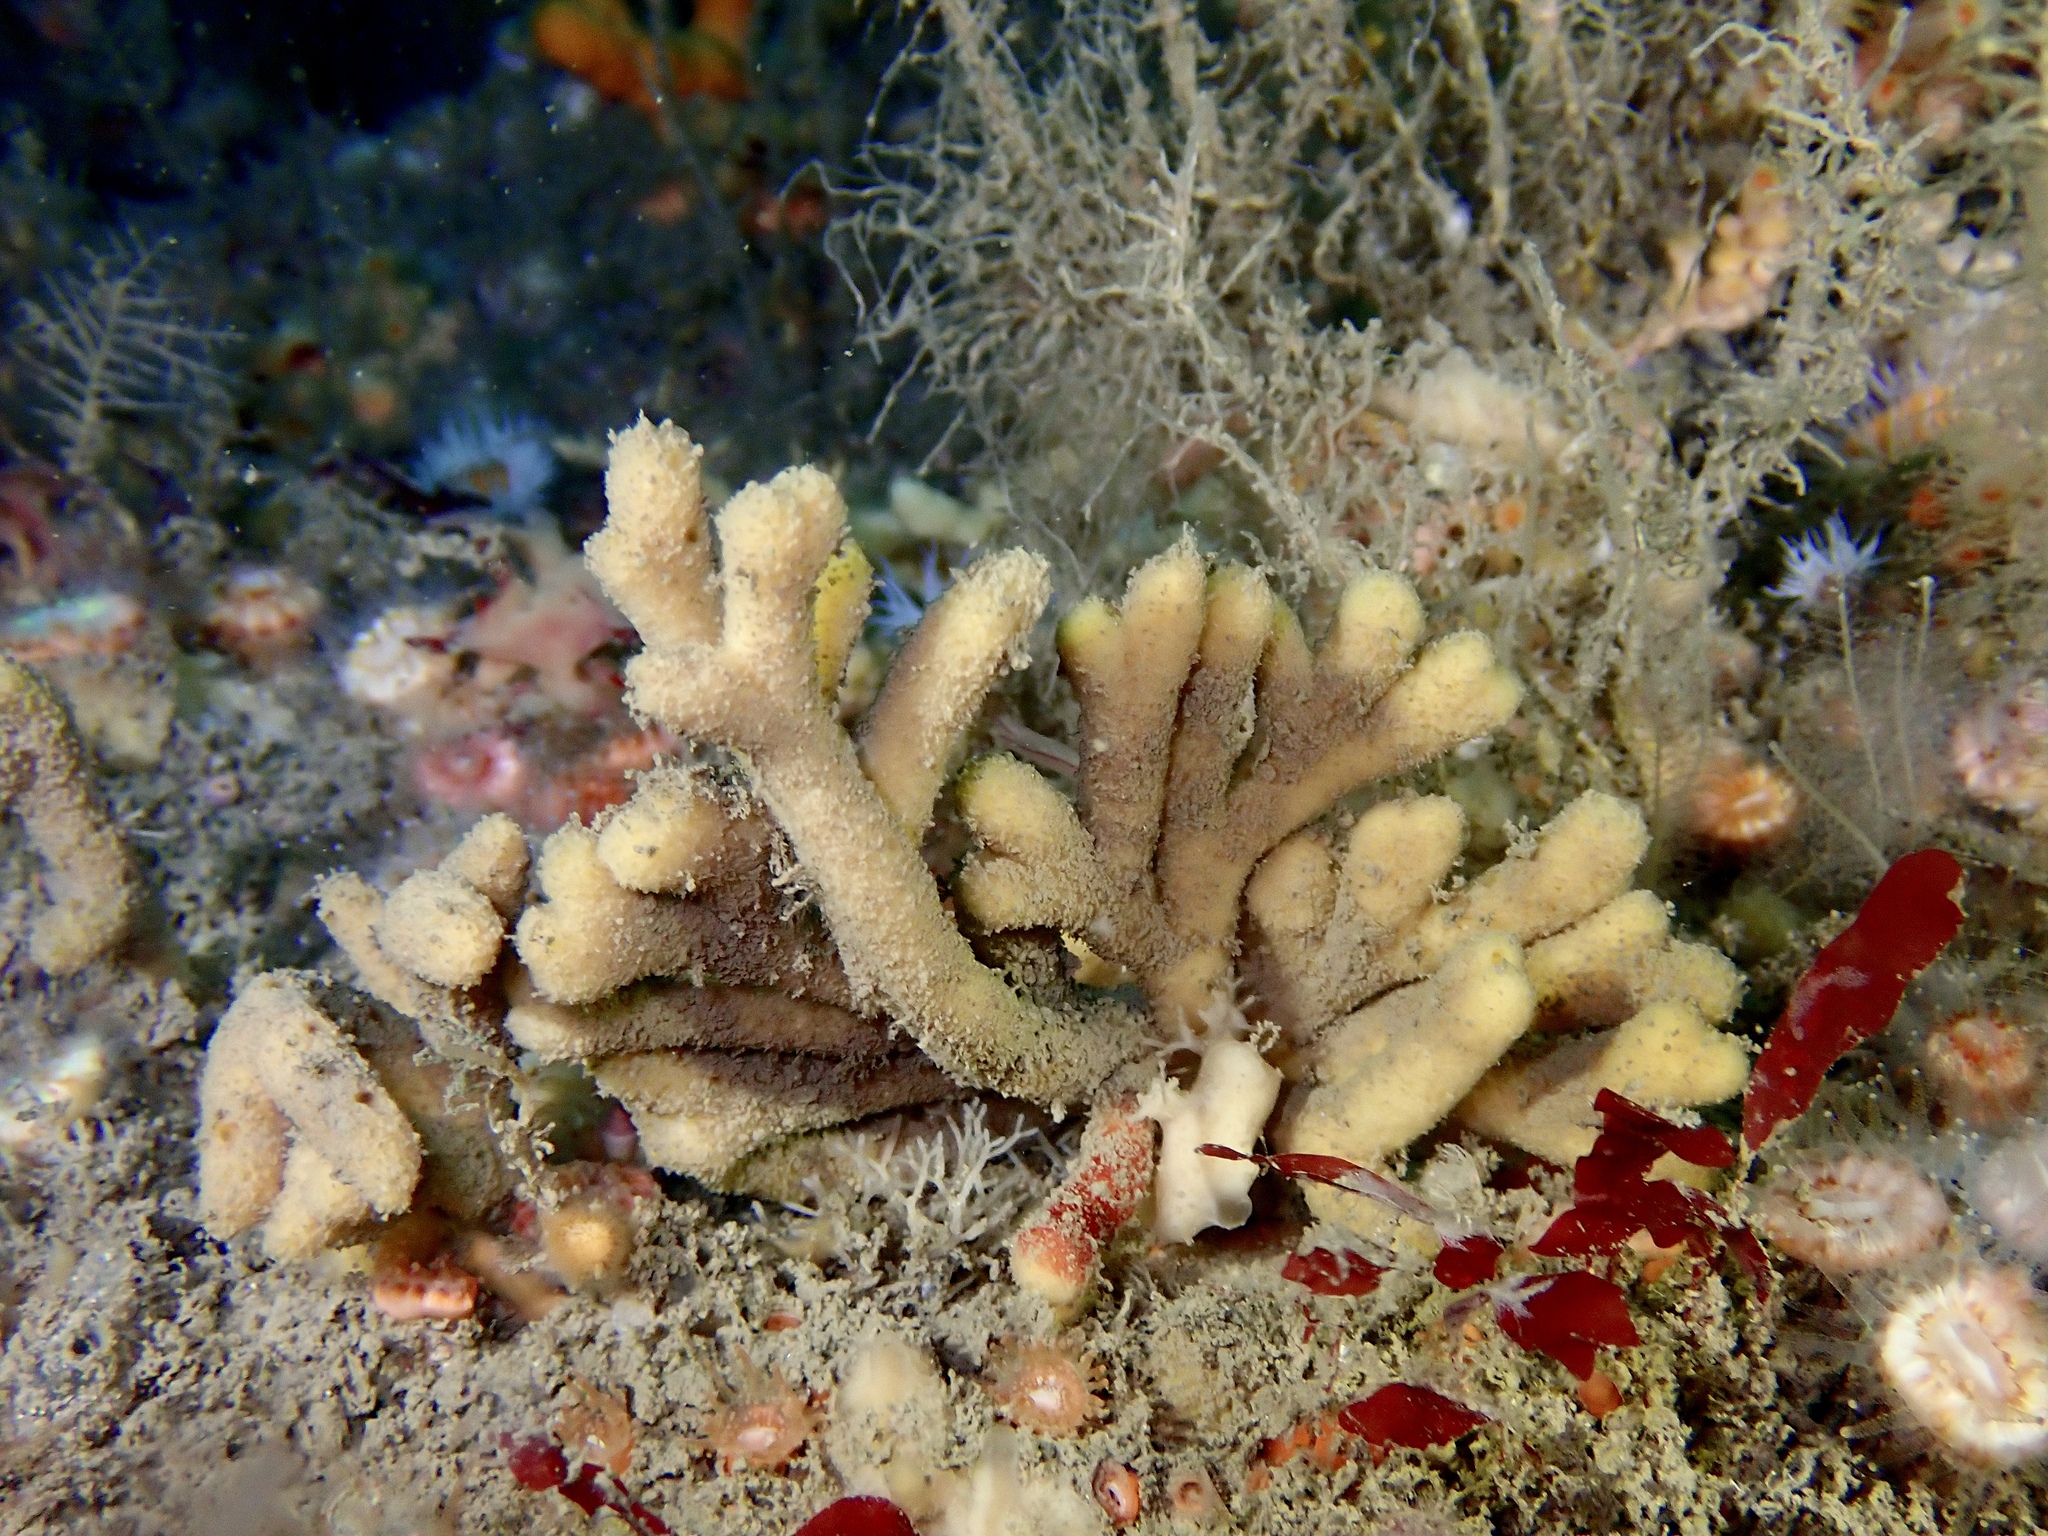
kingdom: Animalia
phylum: Porifera
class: Demospongiae
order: Axinellida
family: Stelligeridae
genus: Stelligera
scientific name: Stelligera stuposa
